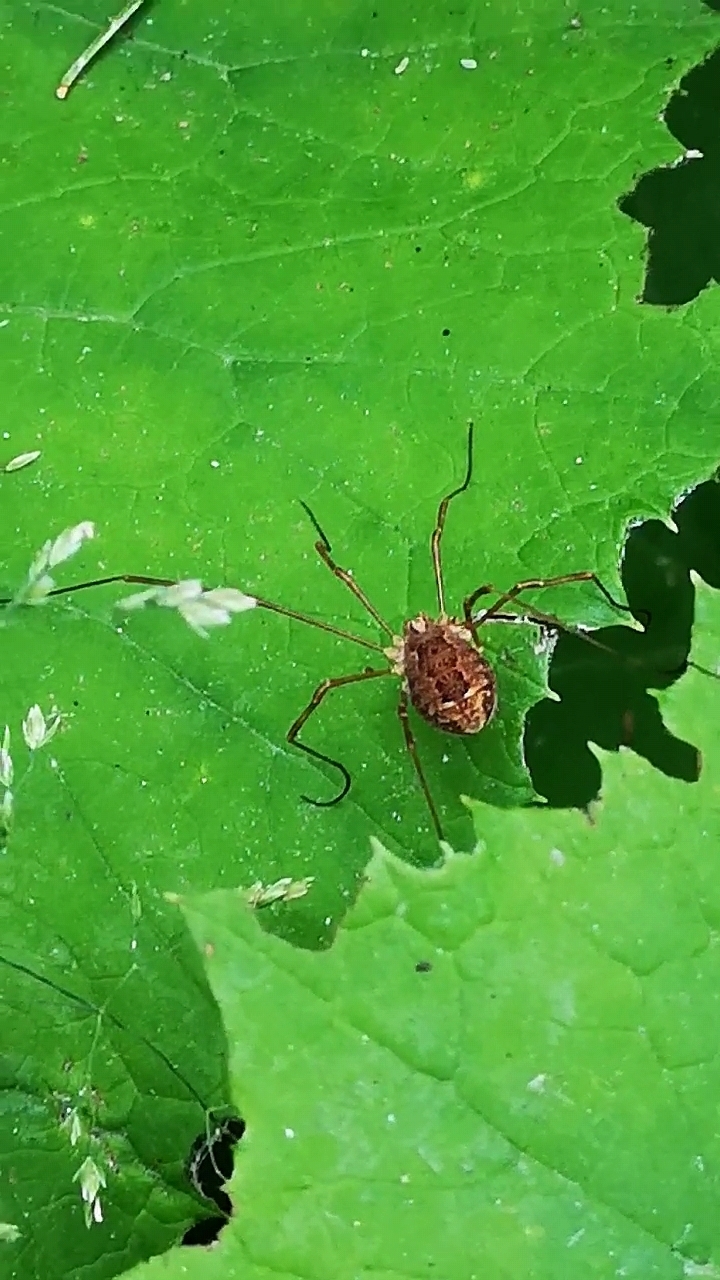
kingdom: Animalia
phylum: Arthropoda
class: Arachnida
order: Opiliones
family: Phalangiidae
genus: Rilaena
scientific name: Rilaena triangularis
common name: Spring harvestman
